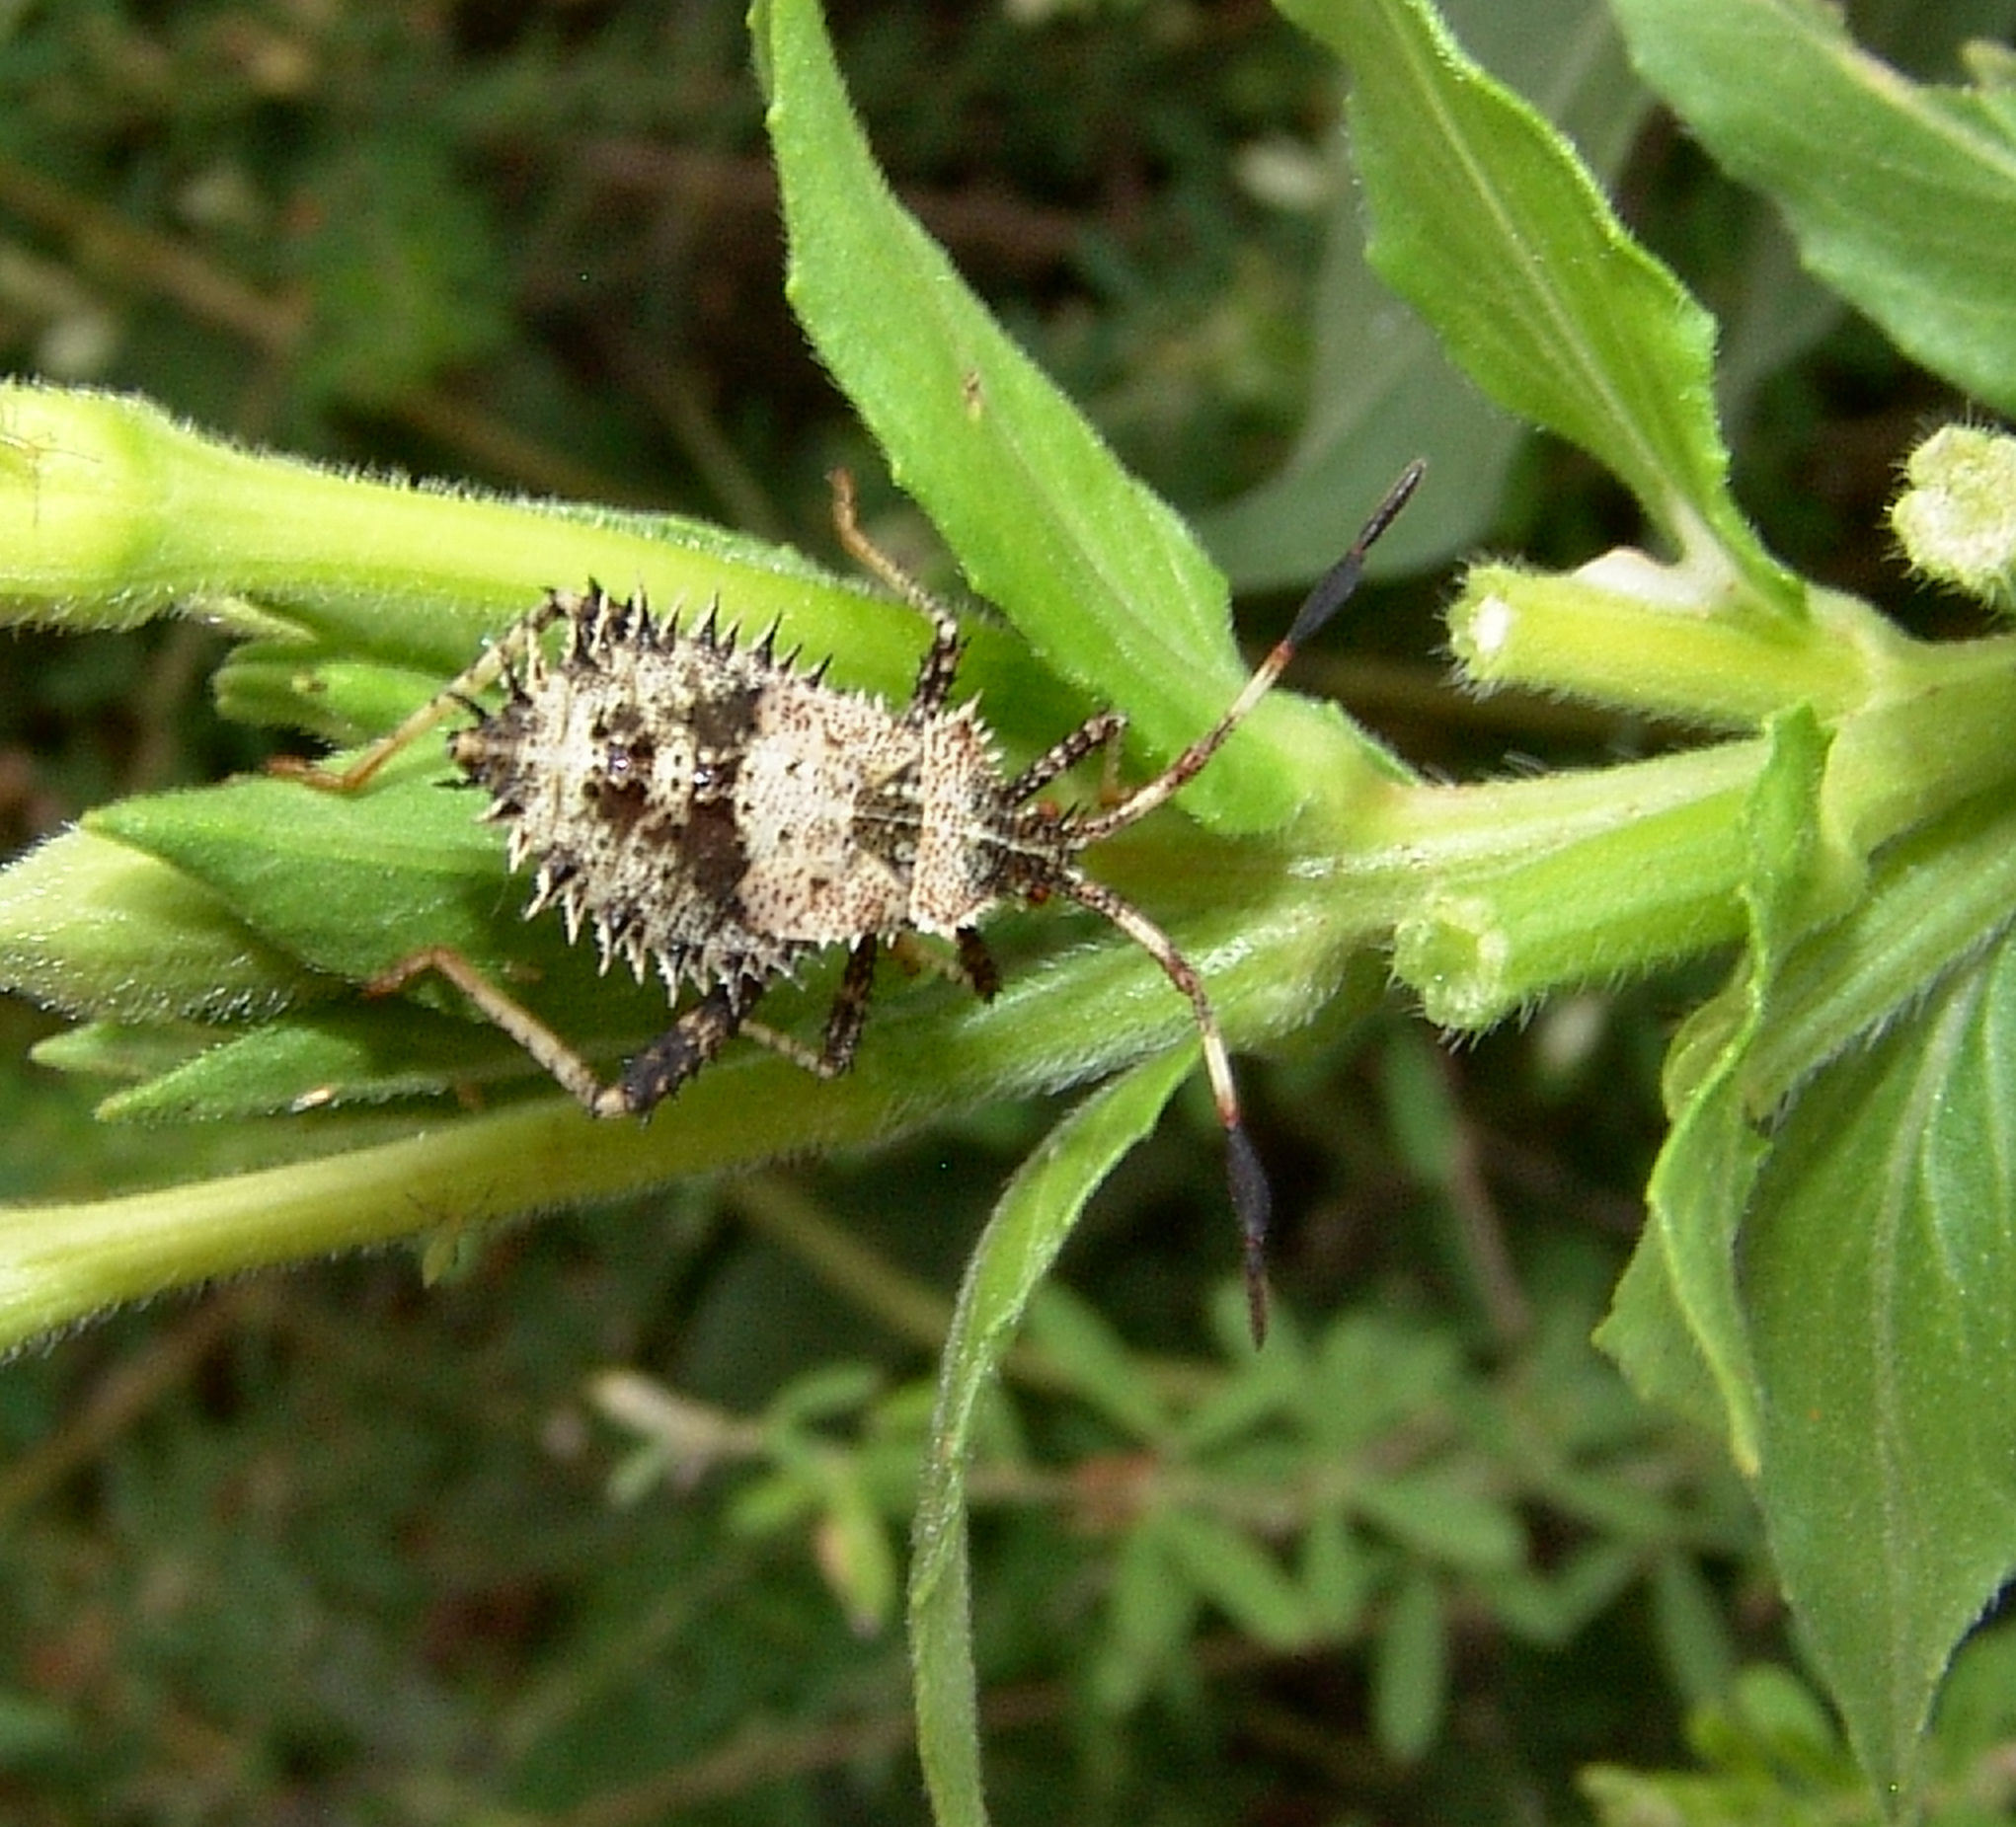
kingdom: Animalia
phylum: Arthropoda
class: Insecta
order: Hemiptera
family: Coreidae
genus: Euthochtha
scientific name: Euthochtha galeator
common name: Helmeted squash bug
